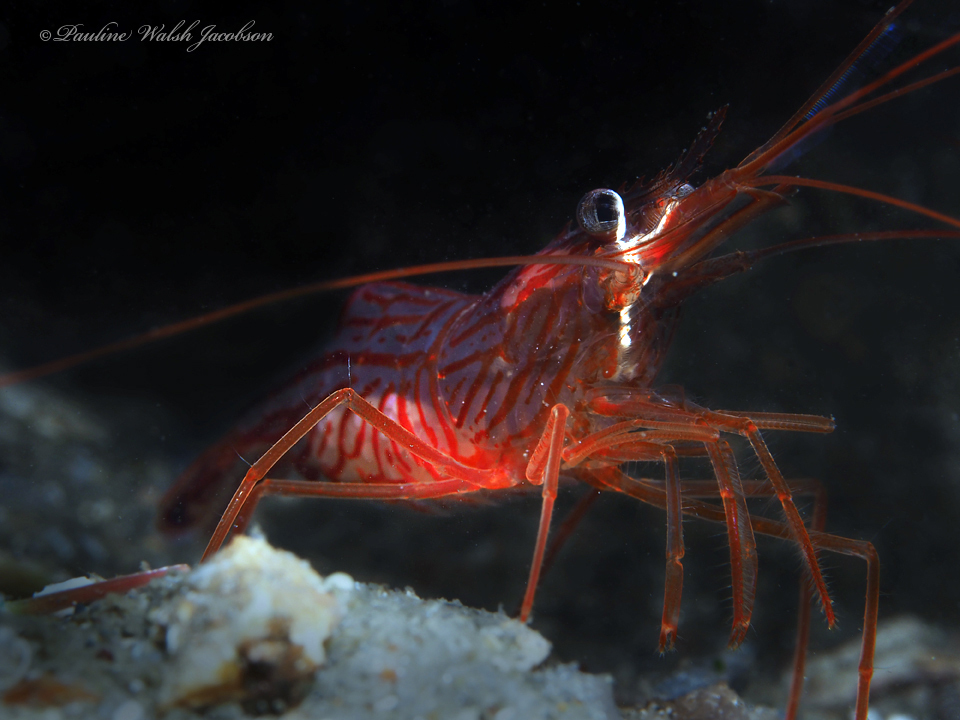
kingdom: Animalia
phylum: Arthropoda
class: Malacostraca
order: Decapoda
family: Lysmatidae
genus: Lysmata
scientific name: Lysmata rafa
